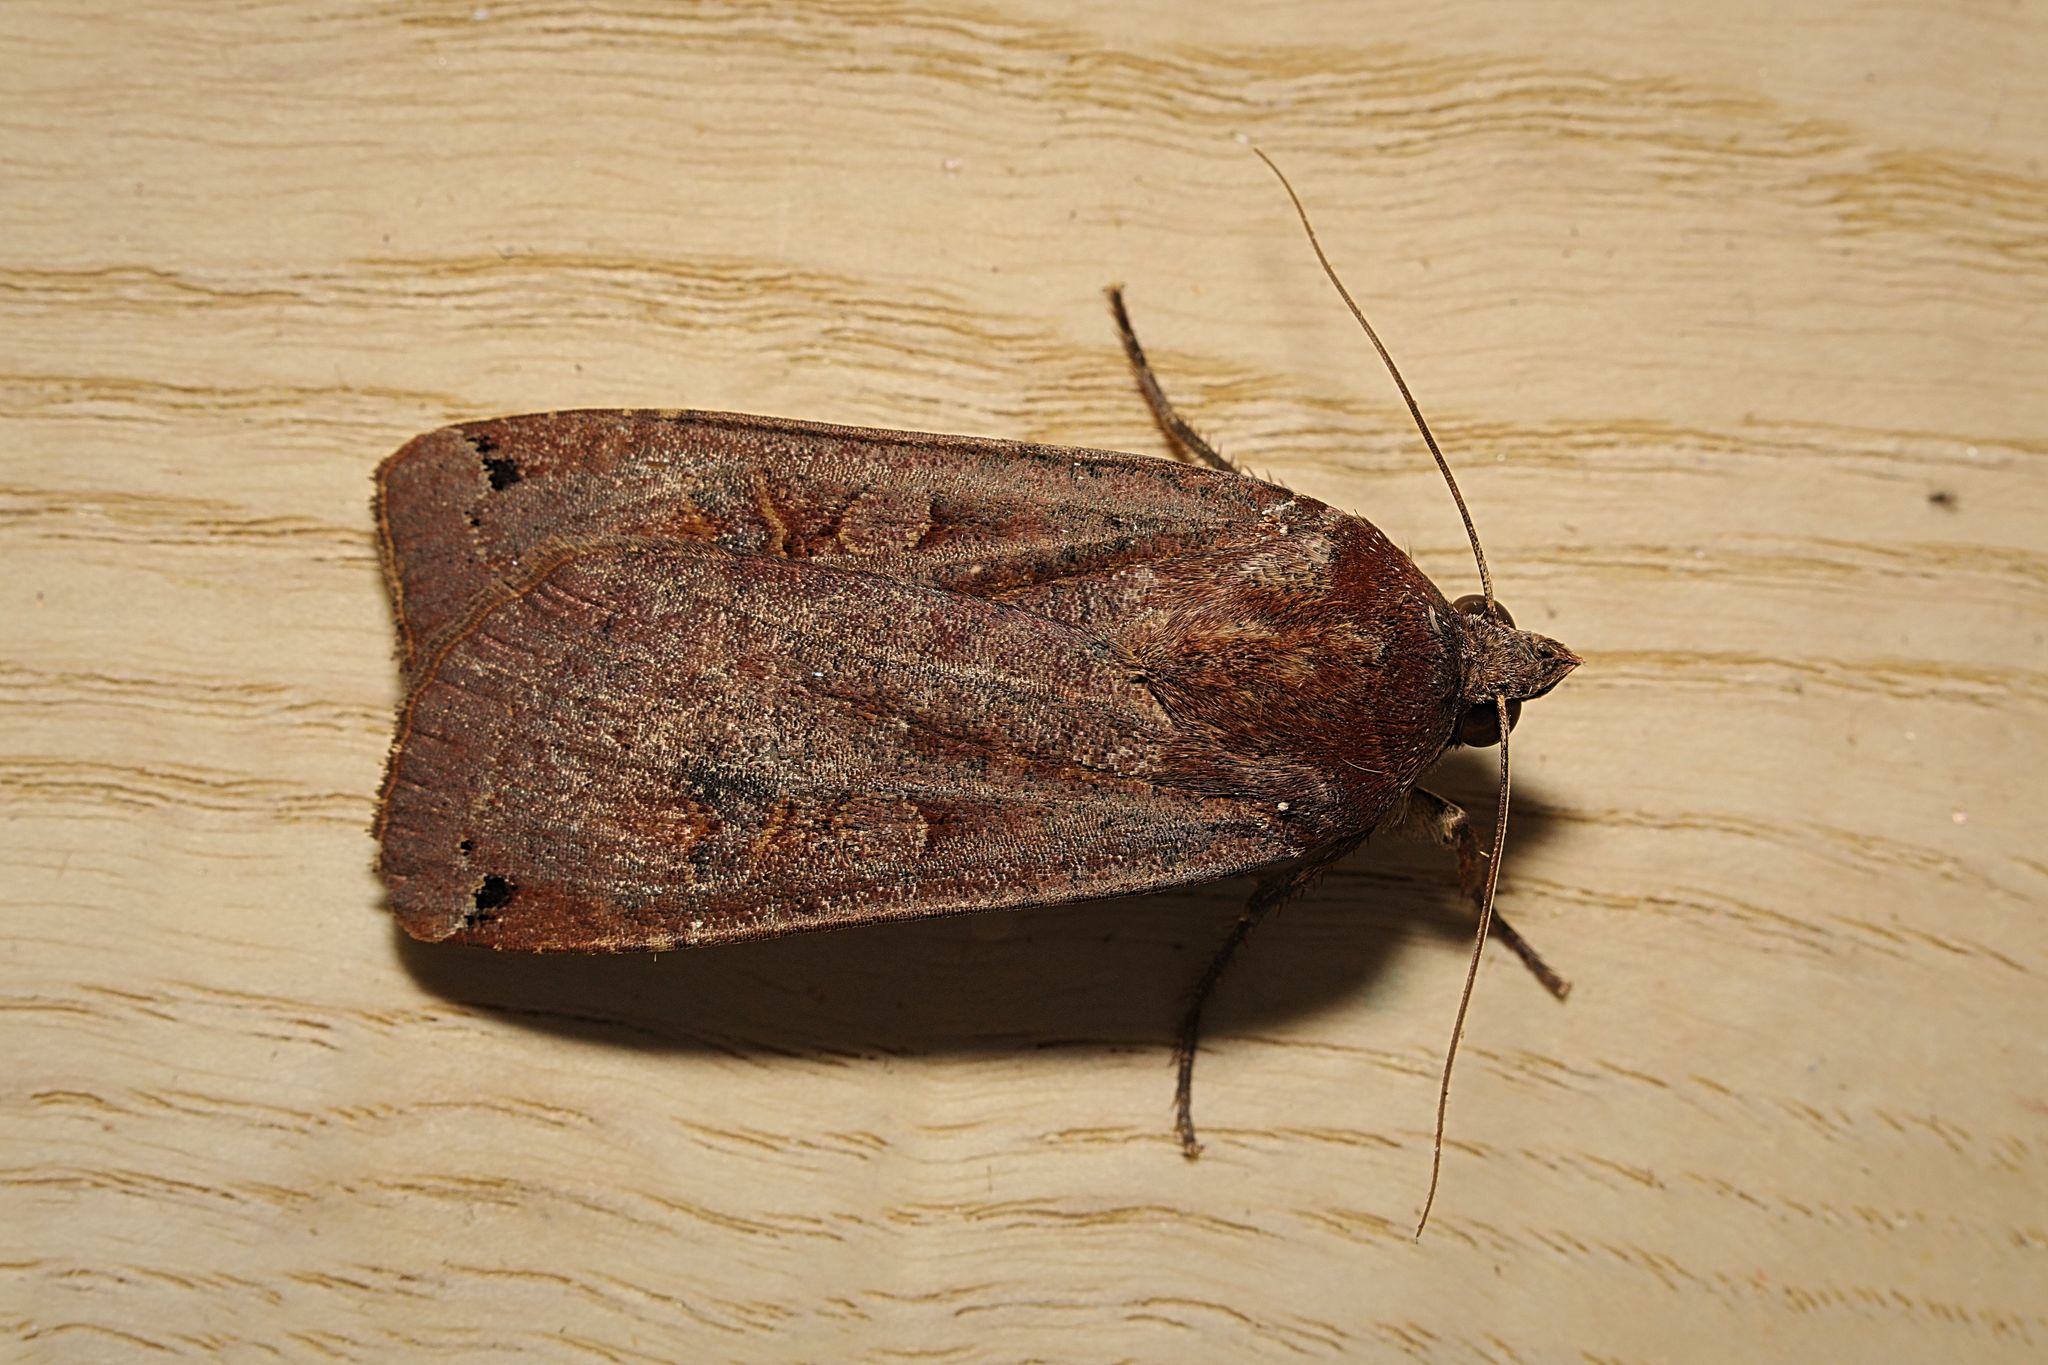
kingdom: Animalia
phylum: Arthropoda
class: Insecta
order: Lepidoptera
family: Noctuidae
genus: Noctua
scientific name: Noctua pronuba
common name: Large yellow underwing
